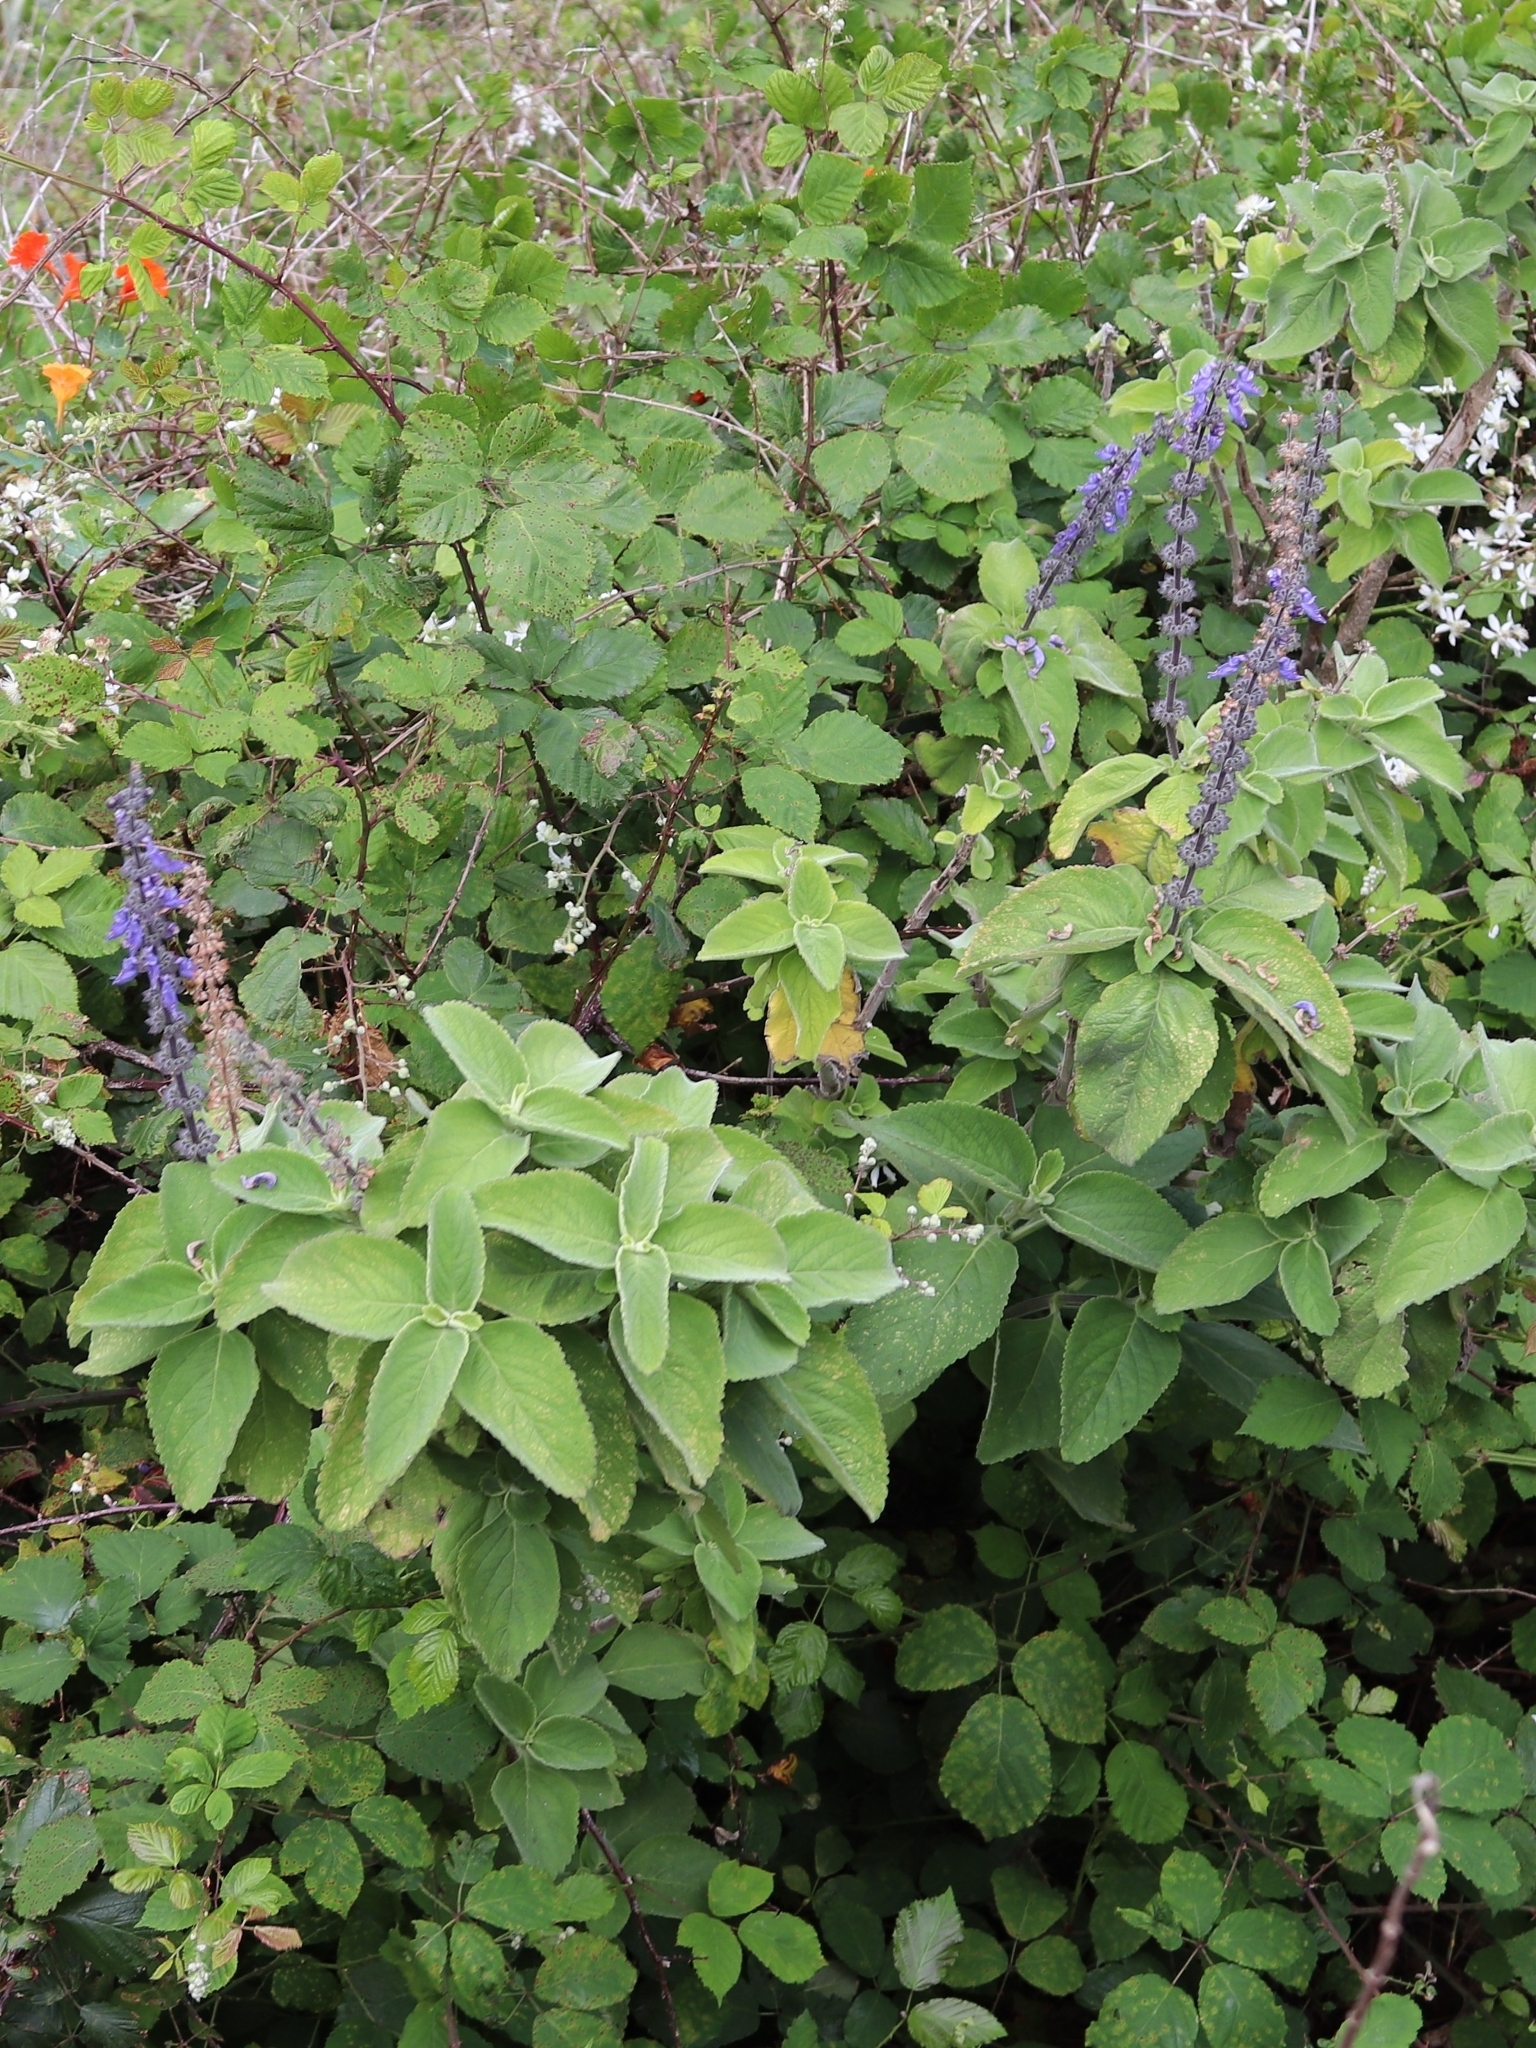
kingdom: Plantae
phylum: Tracheophyta
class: Magnoliopsida
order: Lamiales
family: Lamiaceae
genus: Coleus
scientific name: Coleus barbatus
